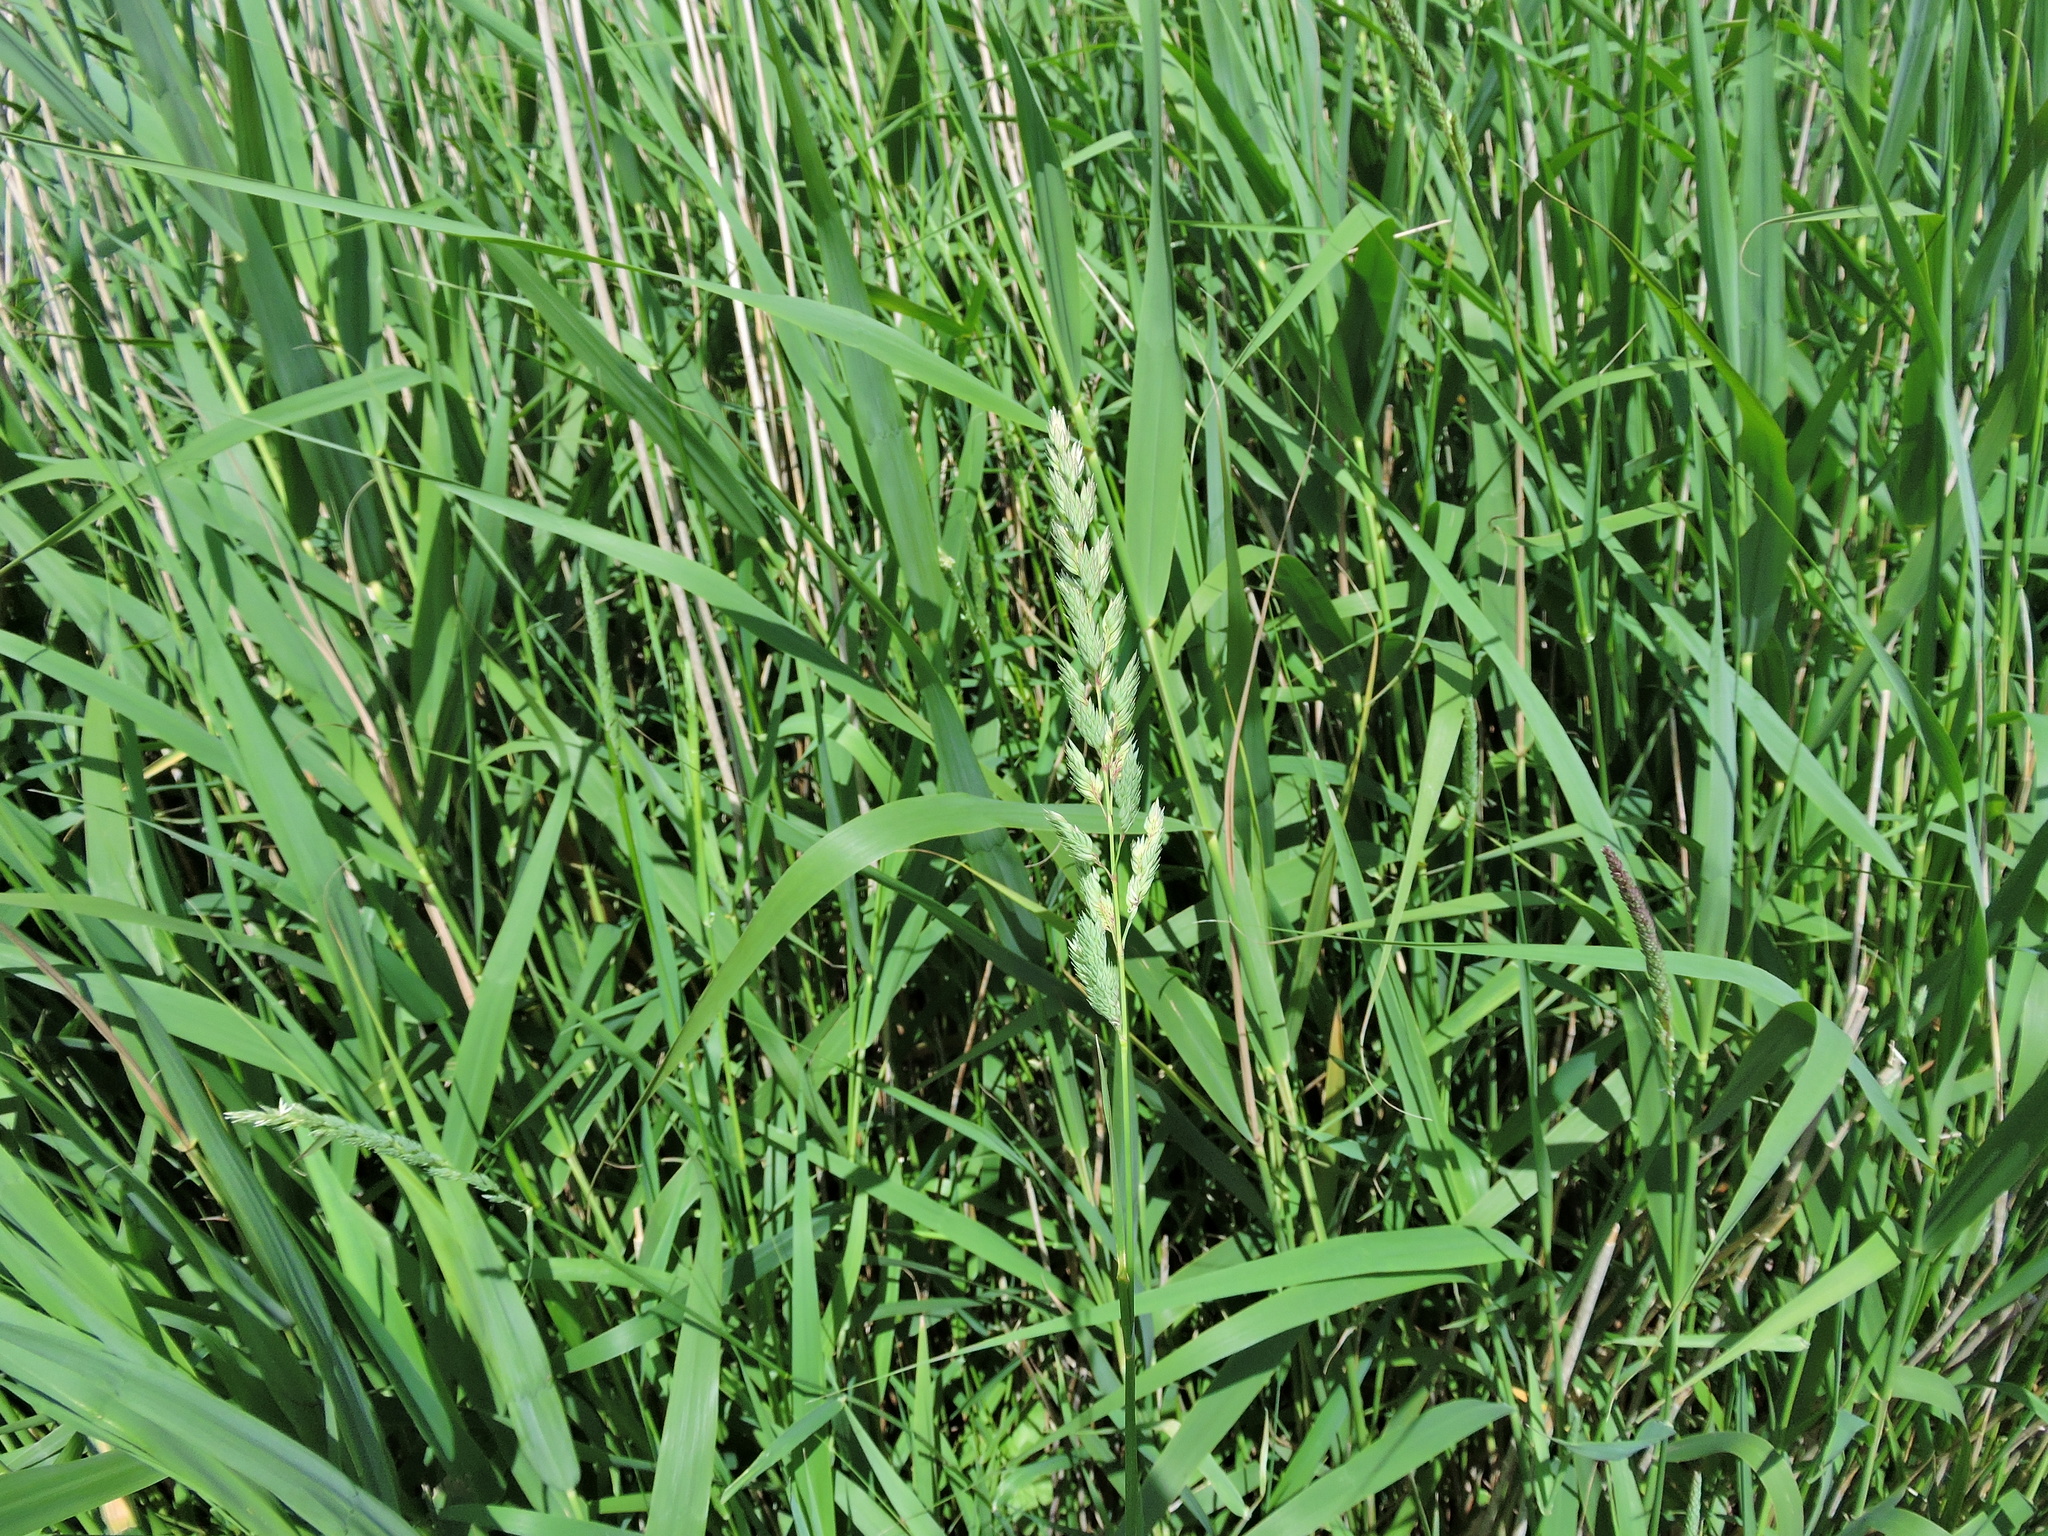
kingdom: Plantae
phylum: Tracheophyta
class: Liliopsida
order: Poales
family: Poaceae
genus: Phalaris
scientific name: Phalaris arundinacea
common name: Reed canary-grass
